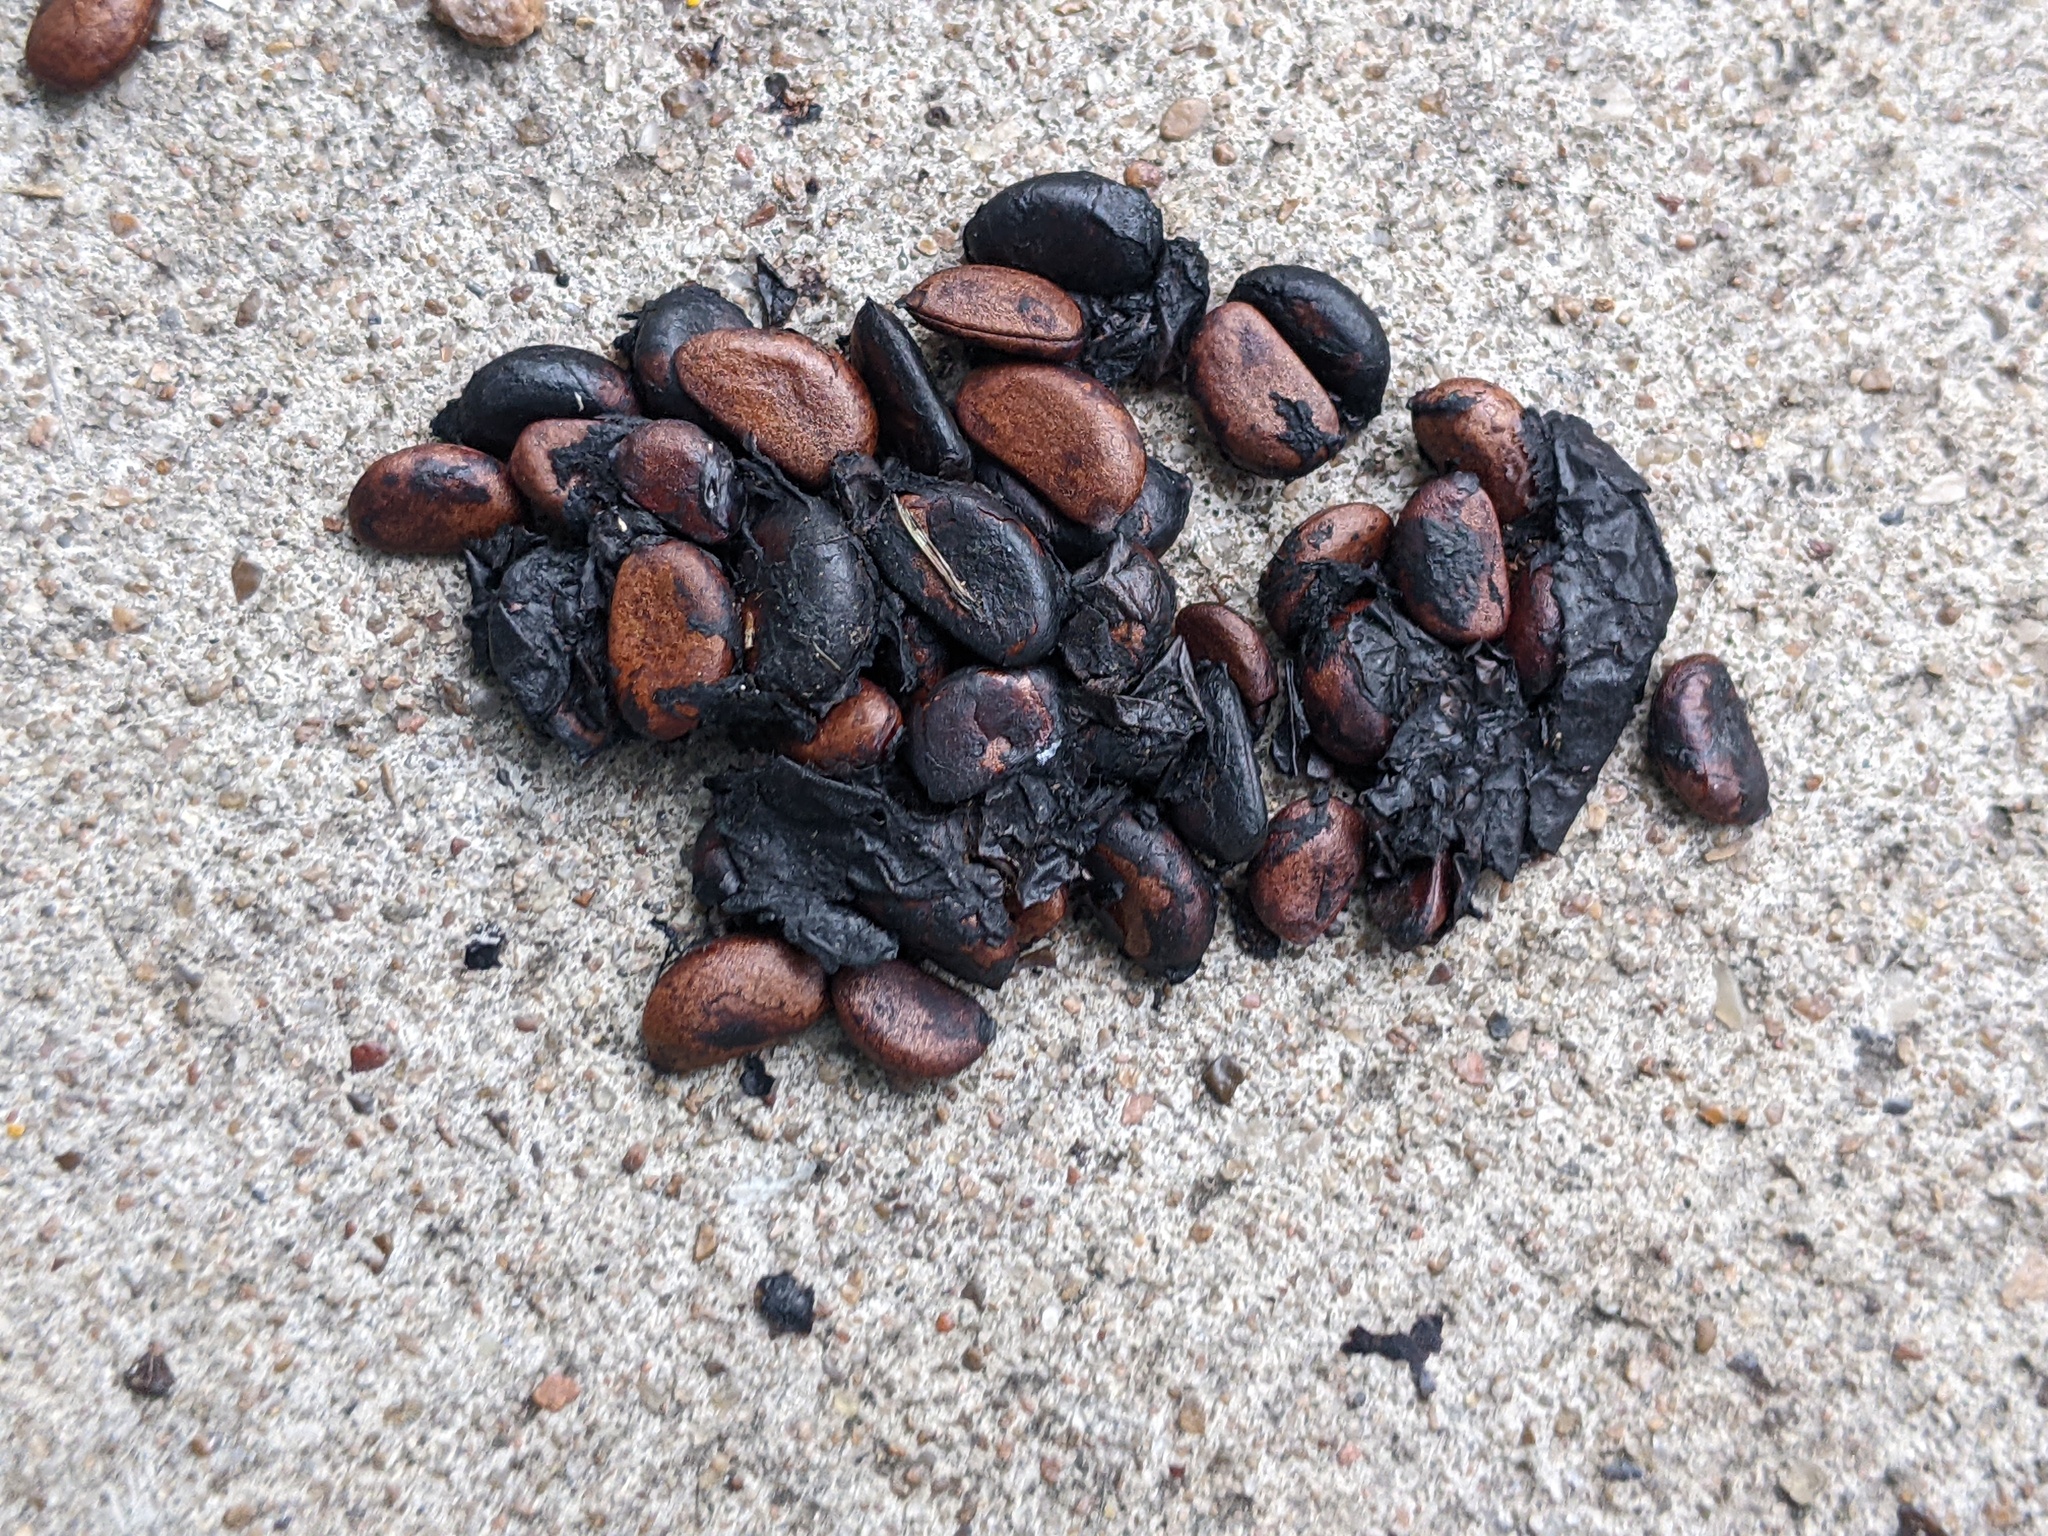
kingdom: Plantae
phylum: Tracheophyta
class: Magnoliopsida
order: Ericales
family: Ebenaceae
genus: Diospyros
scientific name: Diospyros texana
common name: Texas persimmon
